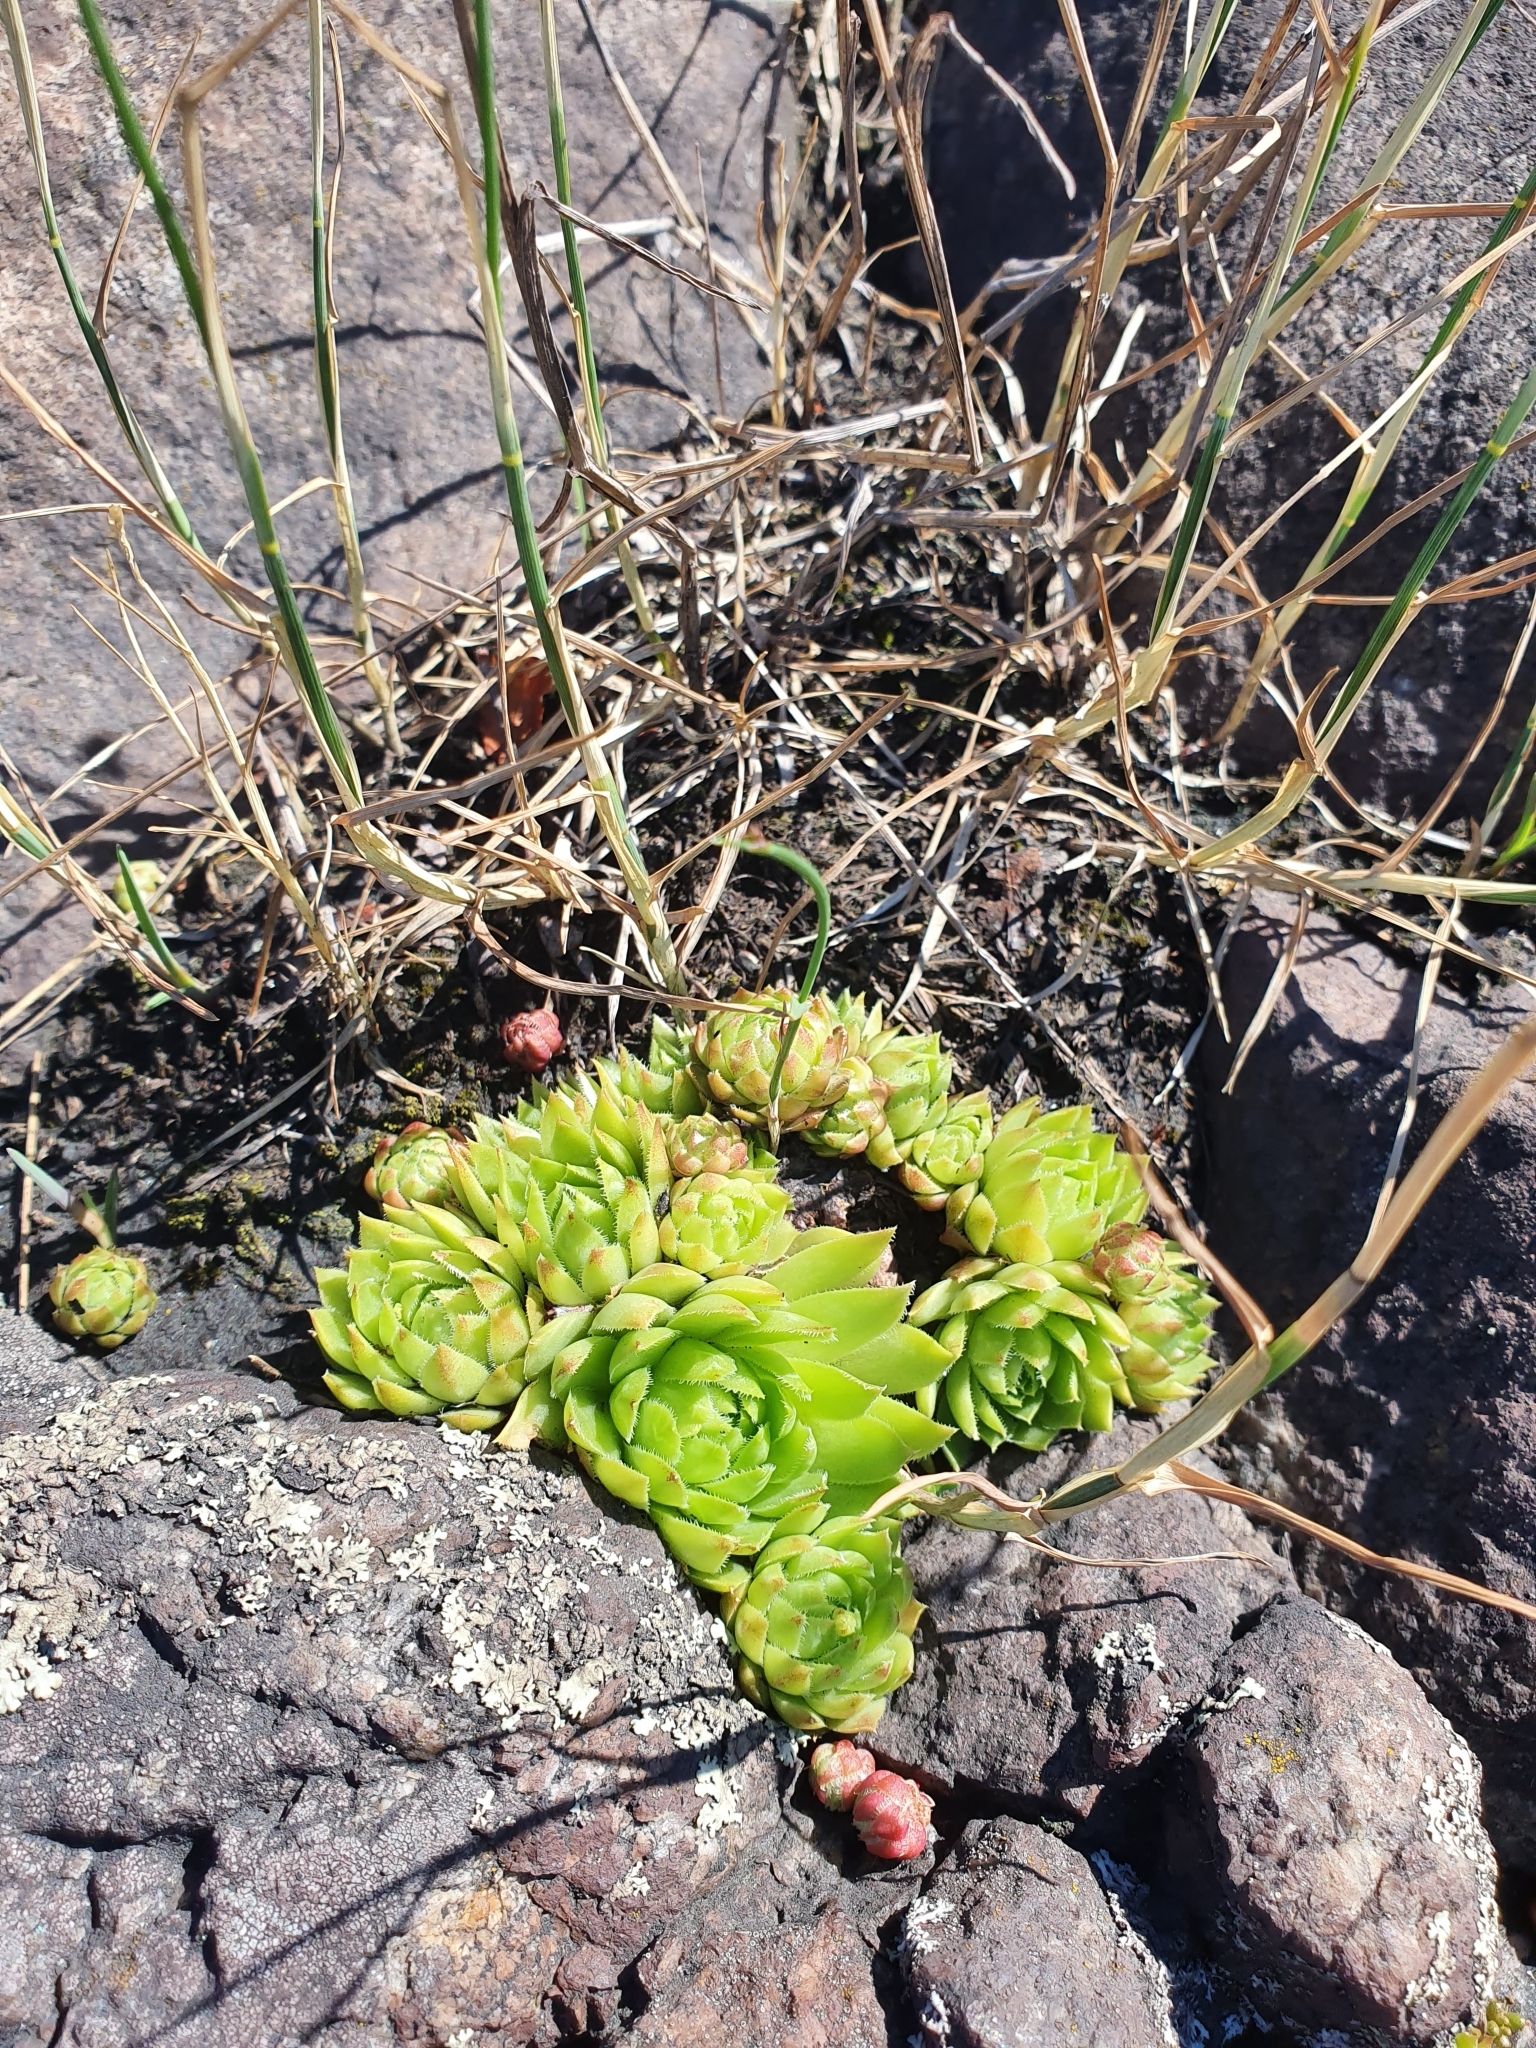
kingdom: Plantae
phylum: Tracheophyta
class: Magnoliopsida
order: Saxifragales
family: Crassulaceae
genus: Sempervivum
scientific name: Sempervivum globiferum
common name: Rolling hen-and-chicks
